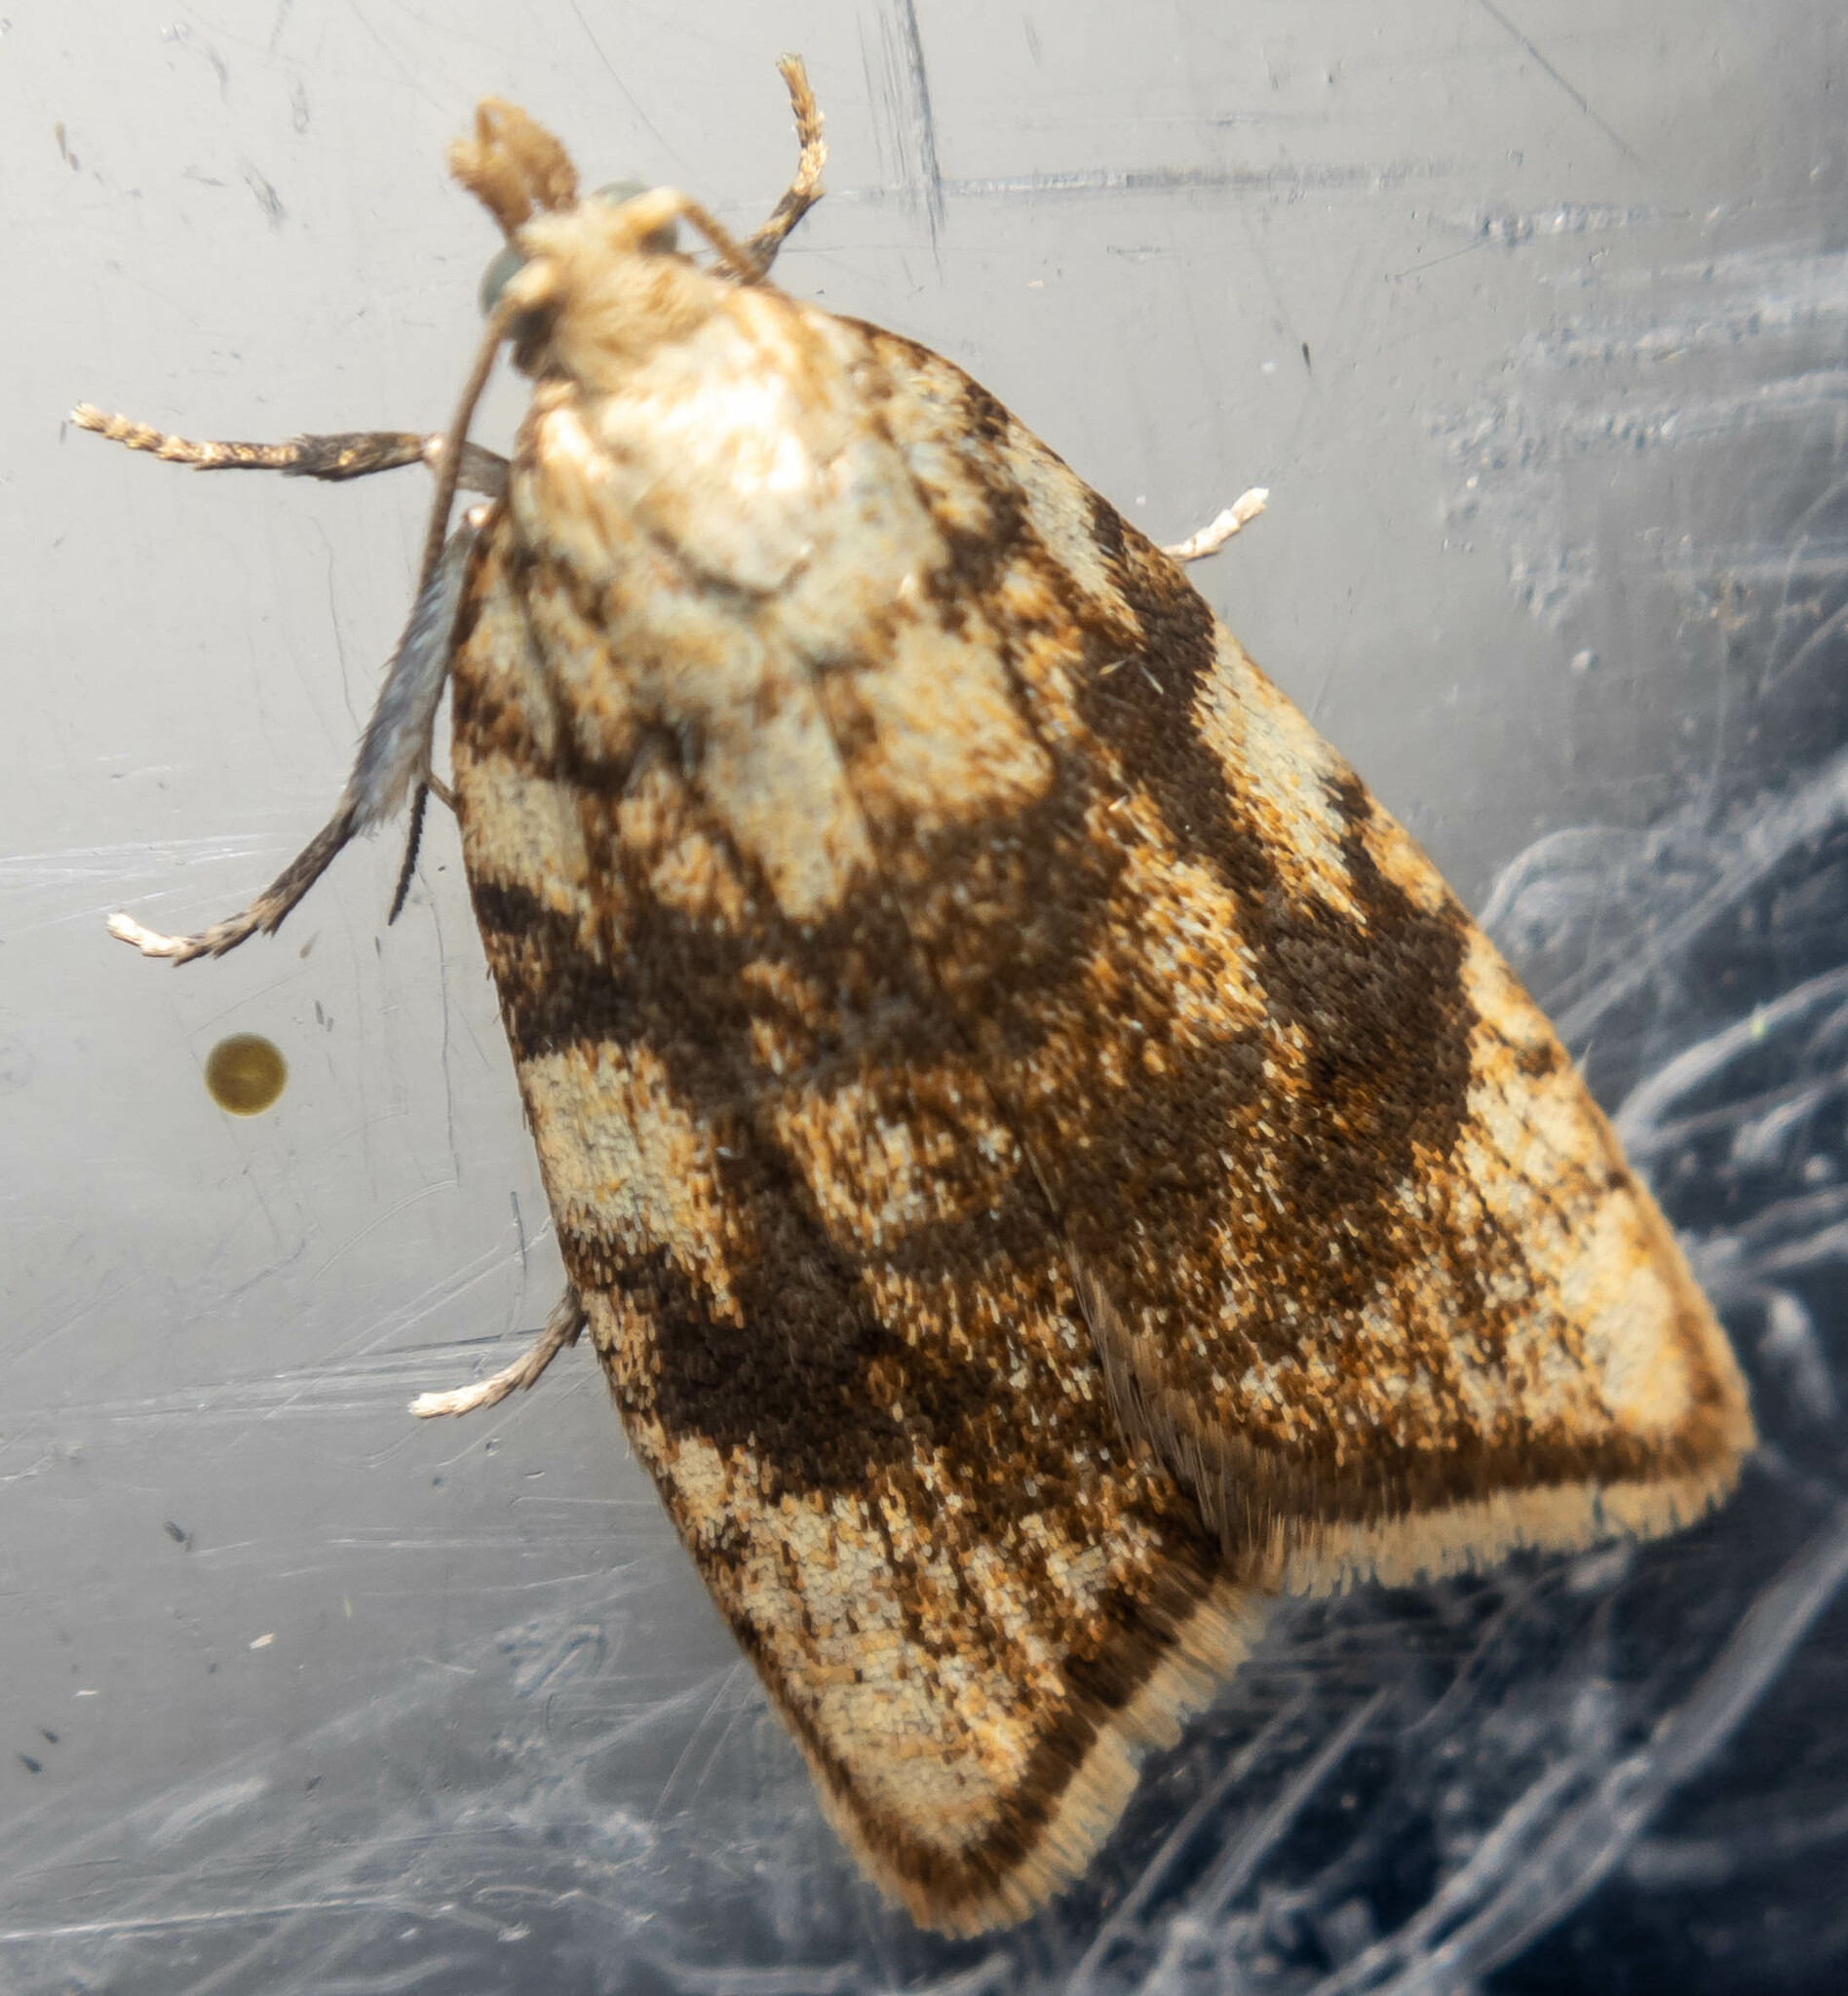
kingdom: Animalia
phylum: Arthropoda
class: Insecta
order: Lepidoptera
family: Tortricidae
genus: Aleimma
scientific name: Aleimma loeflingiana
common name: Yellow oak button
